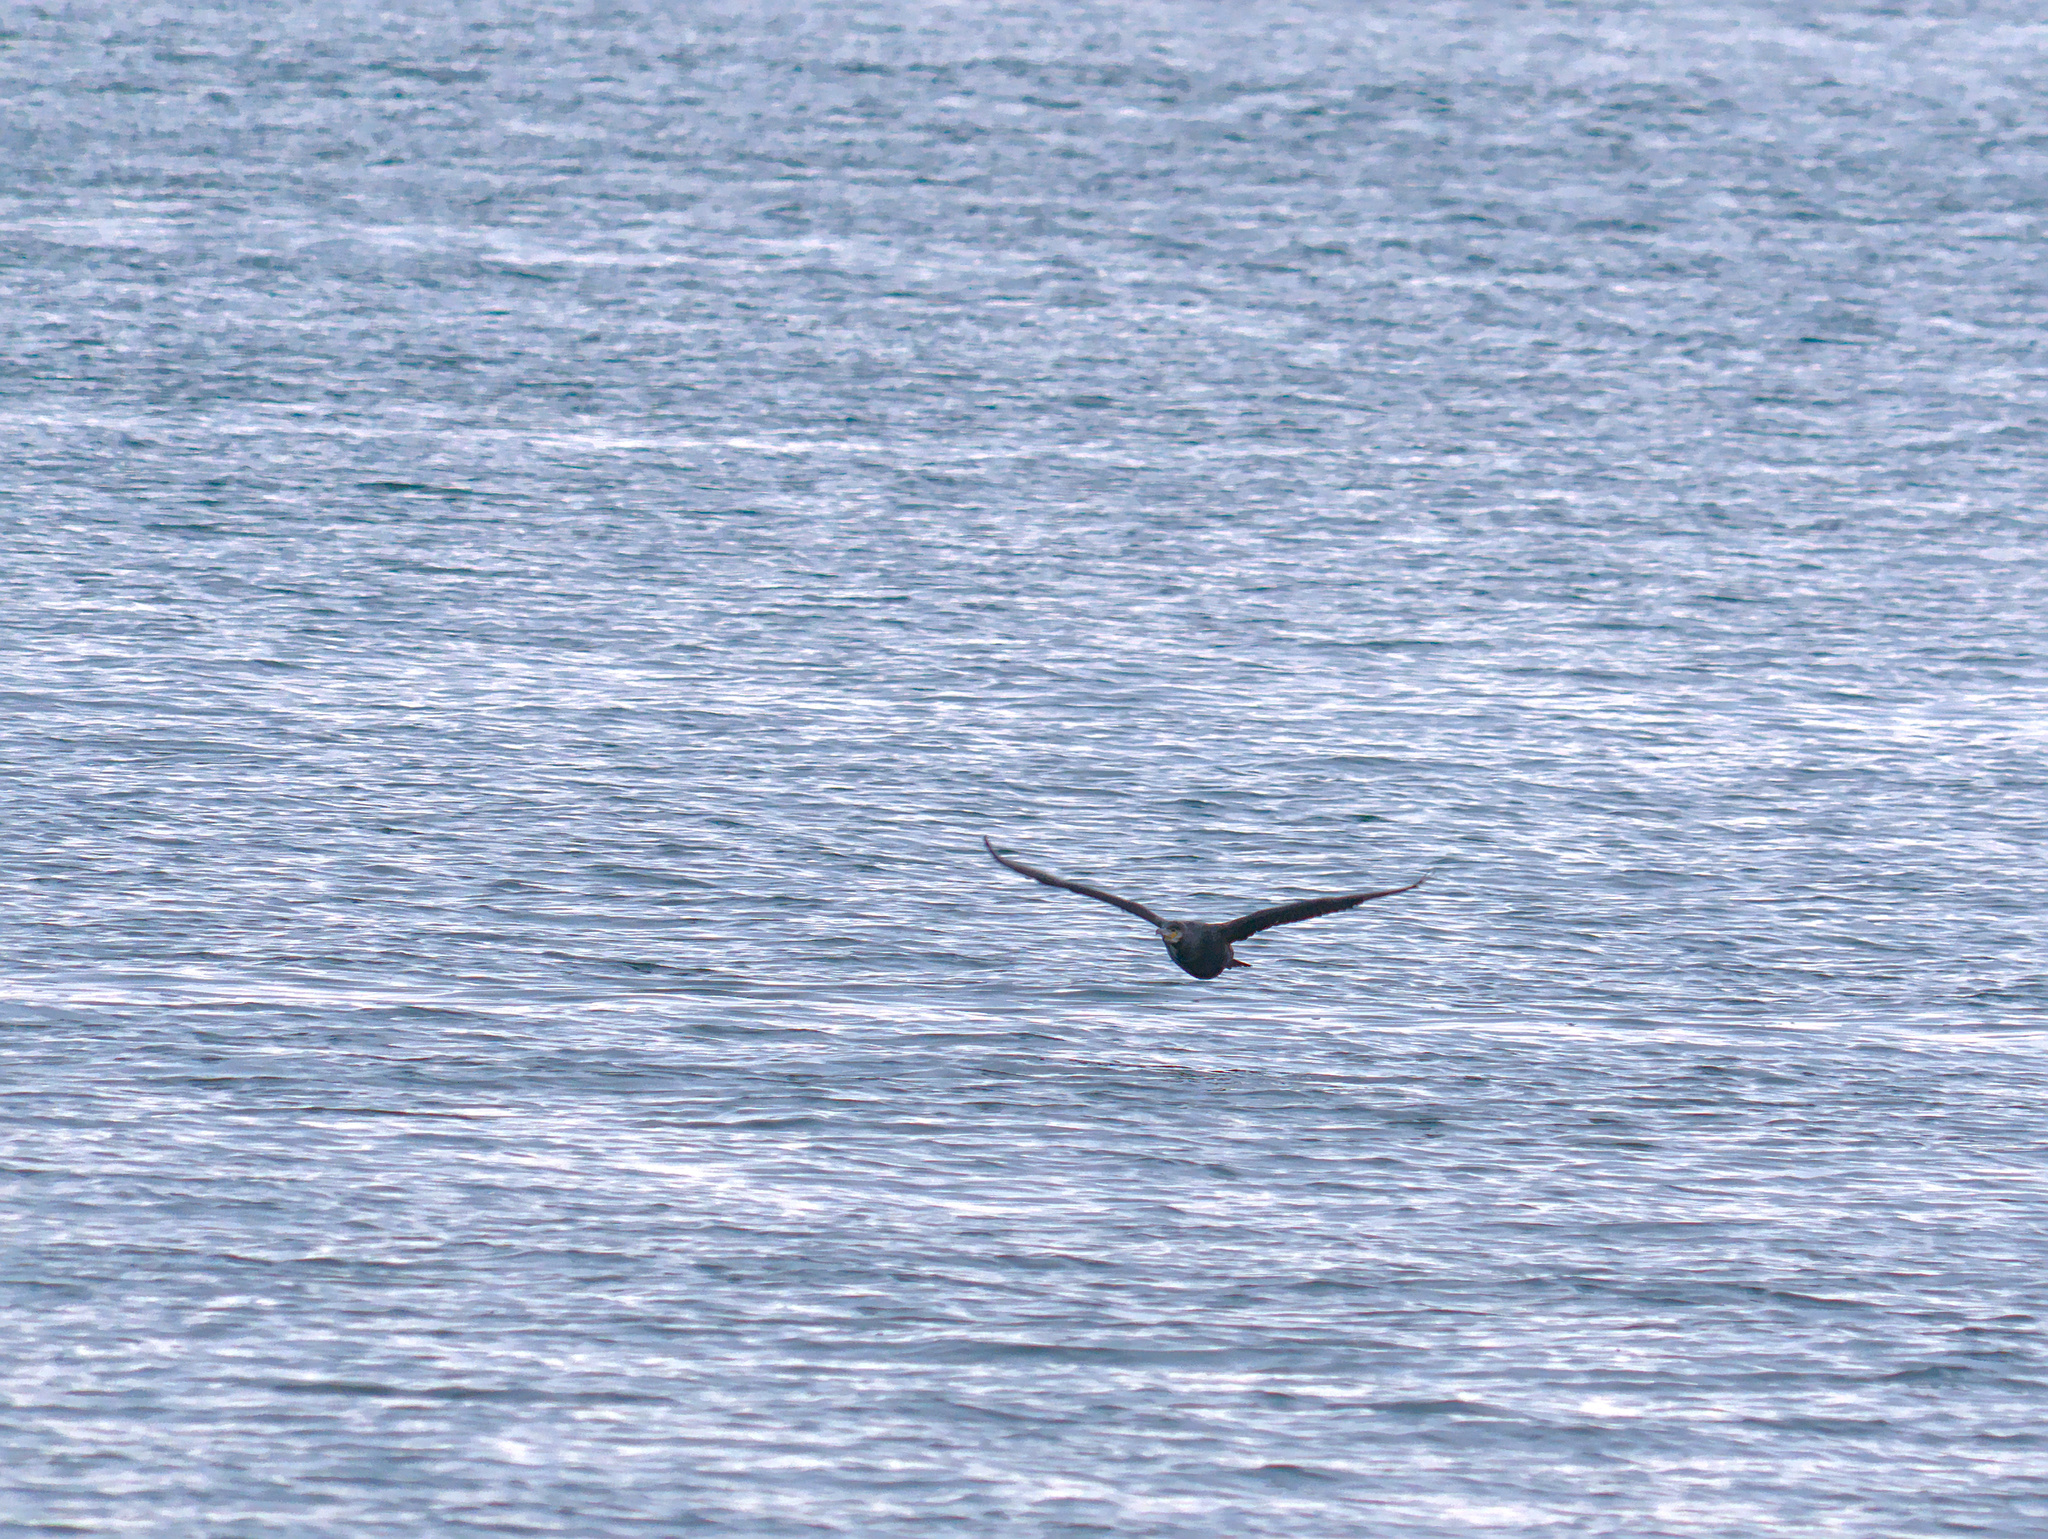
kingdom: Animalia
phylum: Chordata
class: Aves
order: Suliformes
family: Phalacrocoracidae
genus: Phalacrocorax
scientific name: Phalacrocorax carbo
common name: Great cormorant
